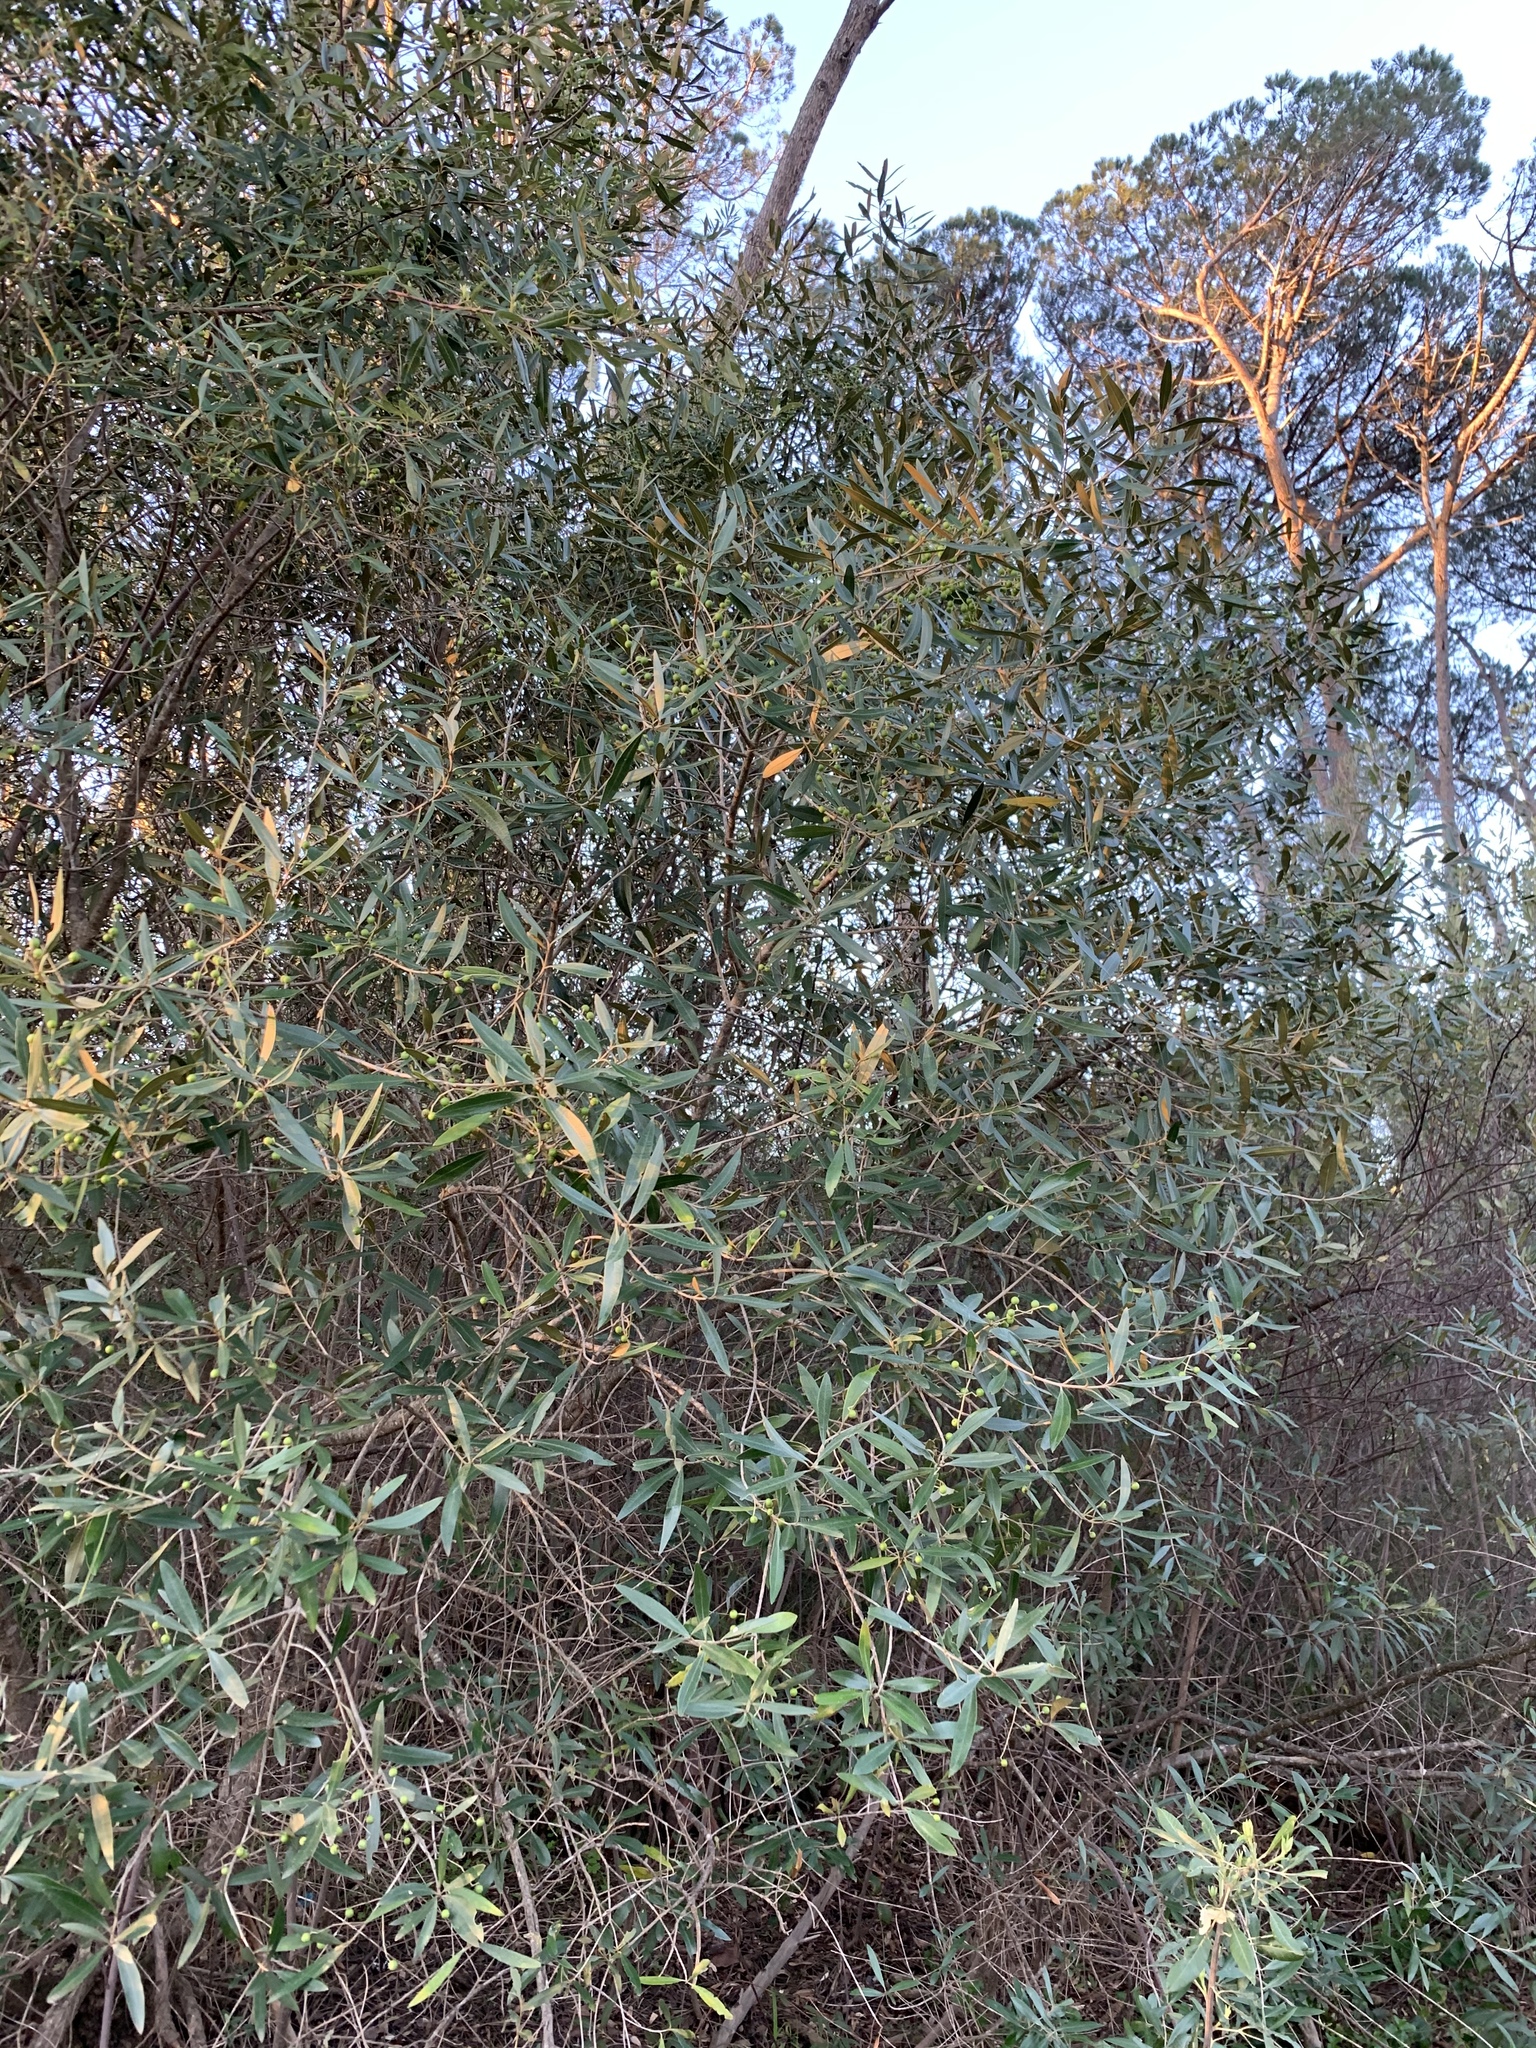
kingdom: Plantae
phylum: Tracheophyta
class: Magnoliopsida
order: Lamiales
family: Oleaceae
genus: Olea
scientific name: Olea europaea
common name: Olive
